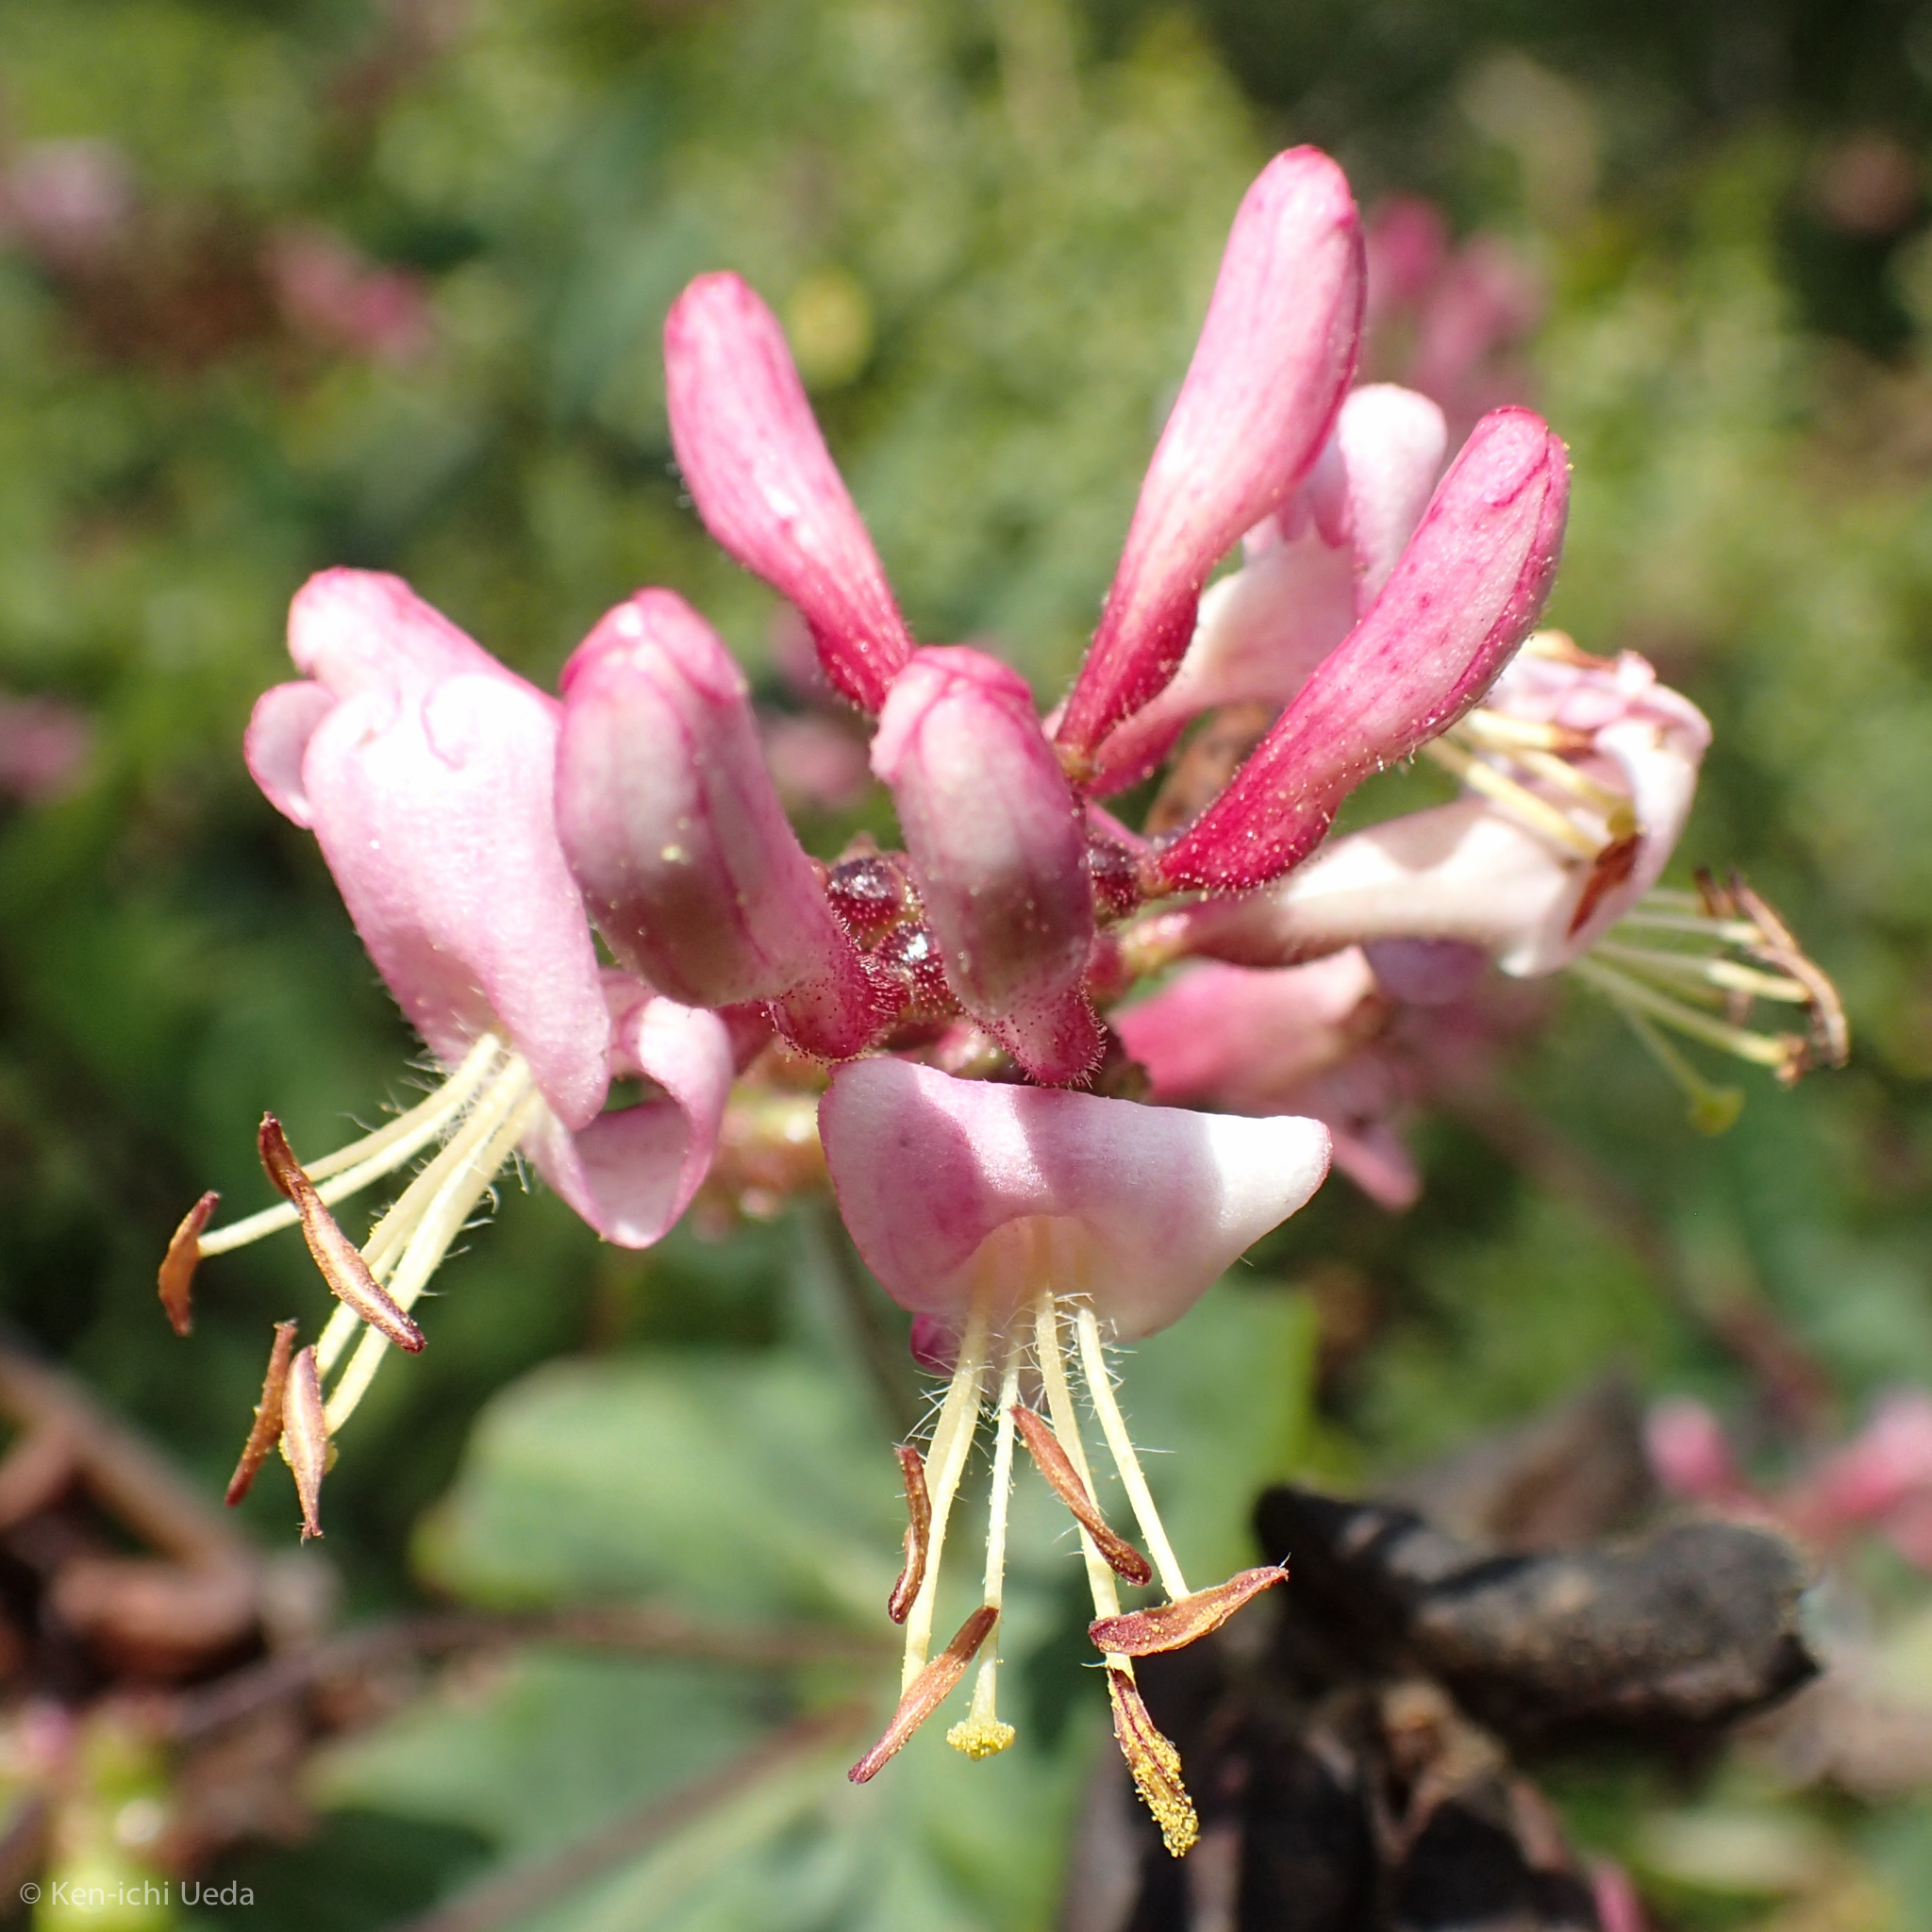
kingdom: Plantae
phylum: Tracheophyta
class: Magnoliopsida
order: Dipsacales
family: Caprifoliaceae
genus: Lonicera
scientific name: Lonicera hispidula
